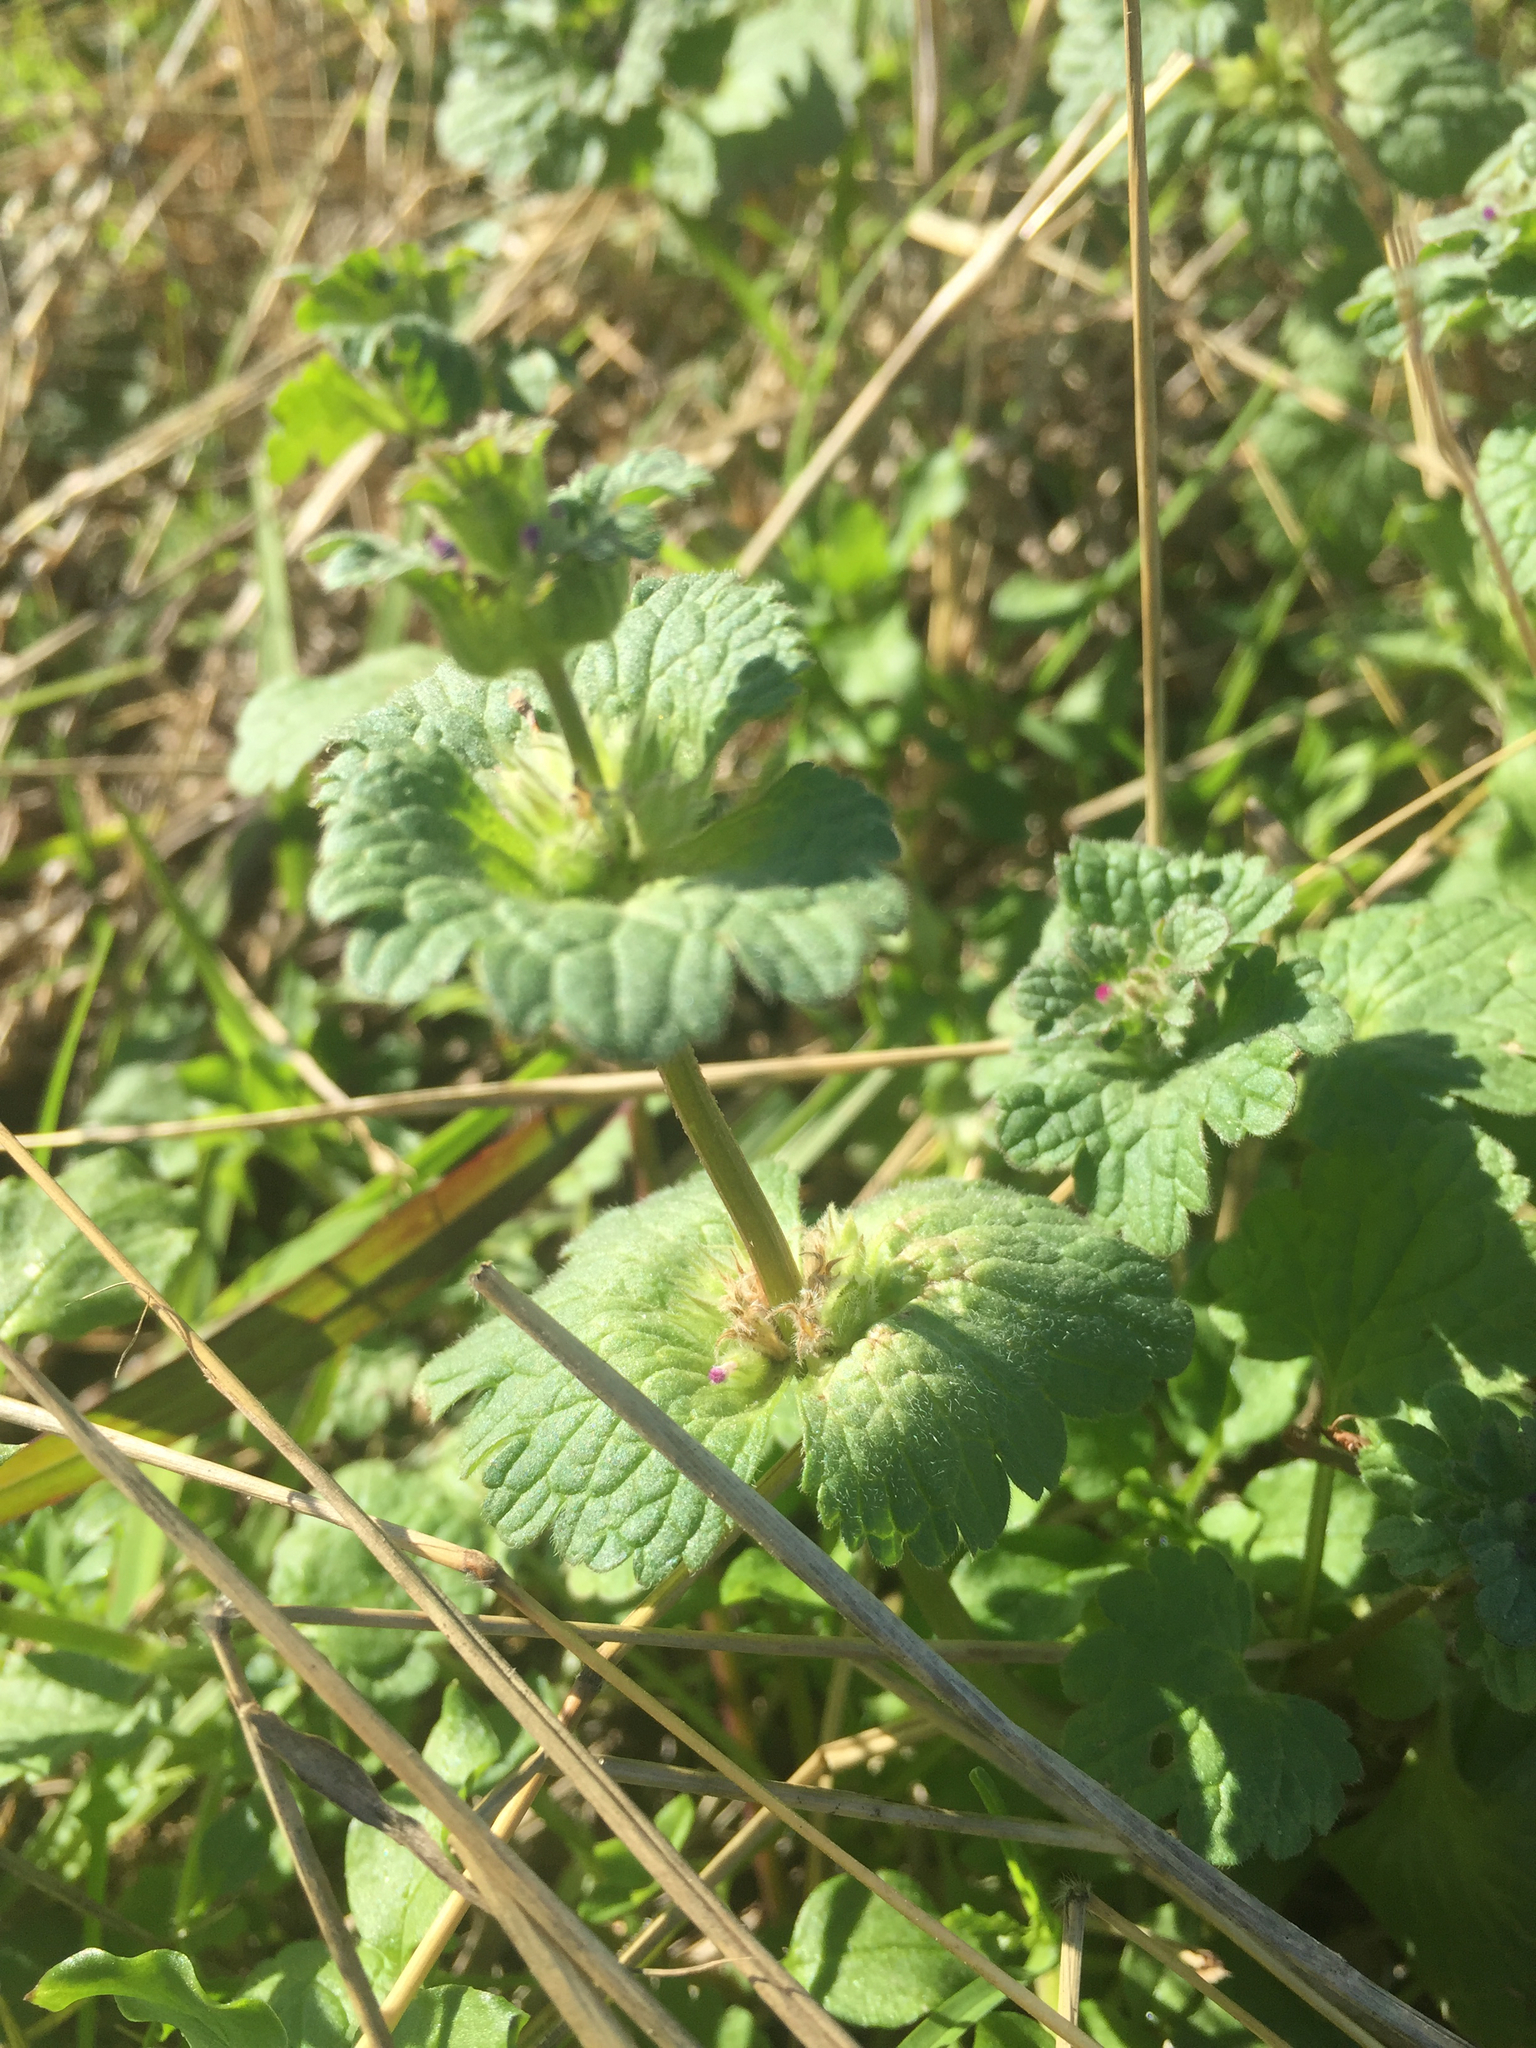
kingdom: Plantae
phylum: Tracheophyta
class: Magnoliopsida
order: Lamiales
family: Lamiaceae
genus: Lamium
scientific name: Lamium amplexicaule
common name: Henbit dead-nettle
